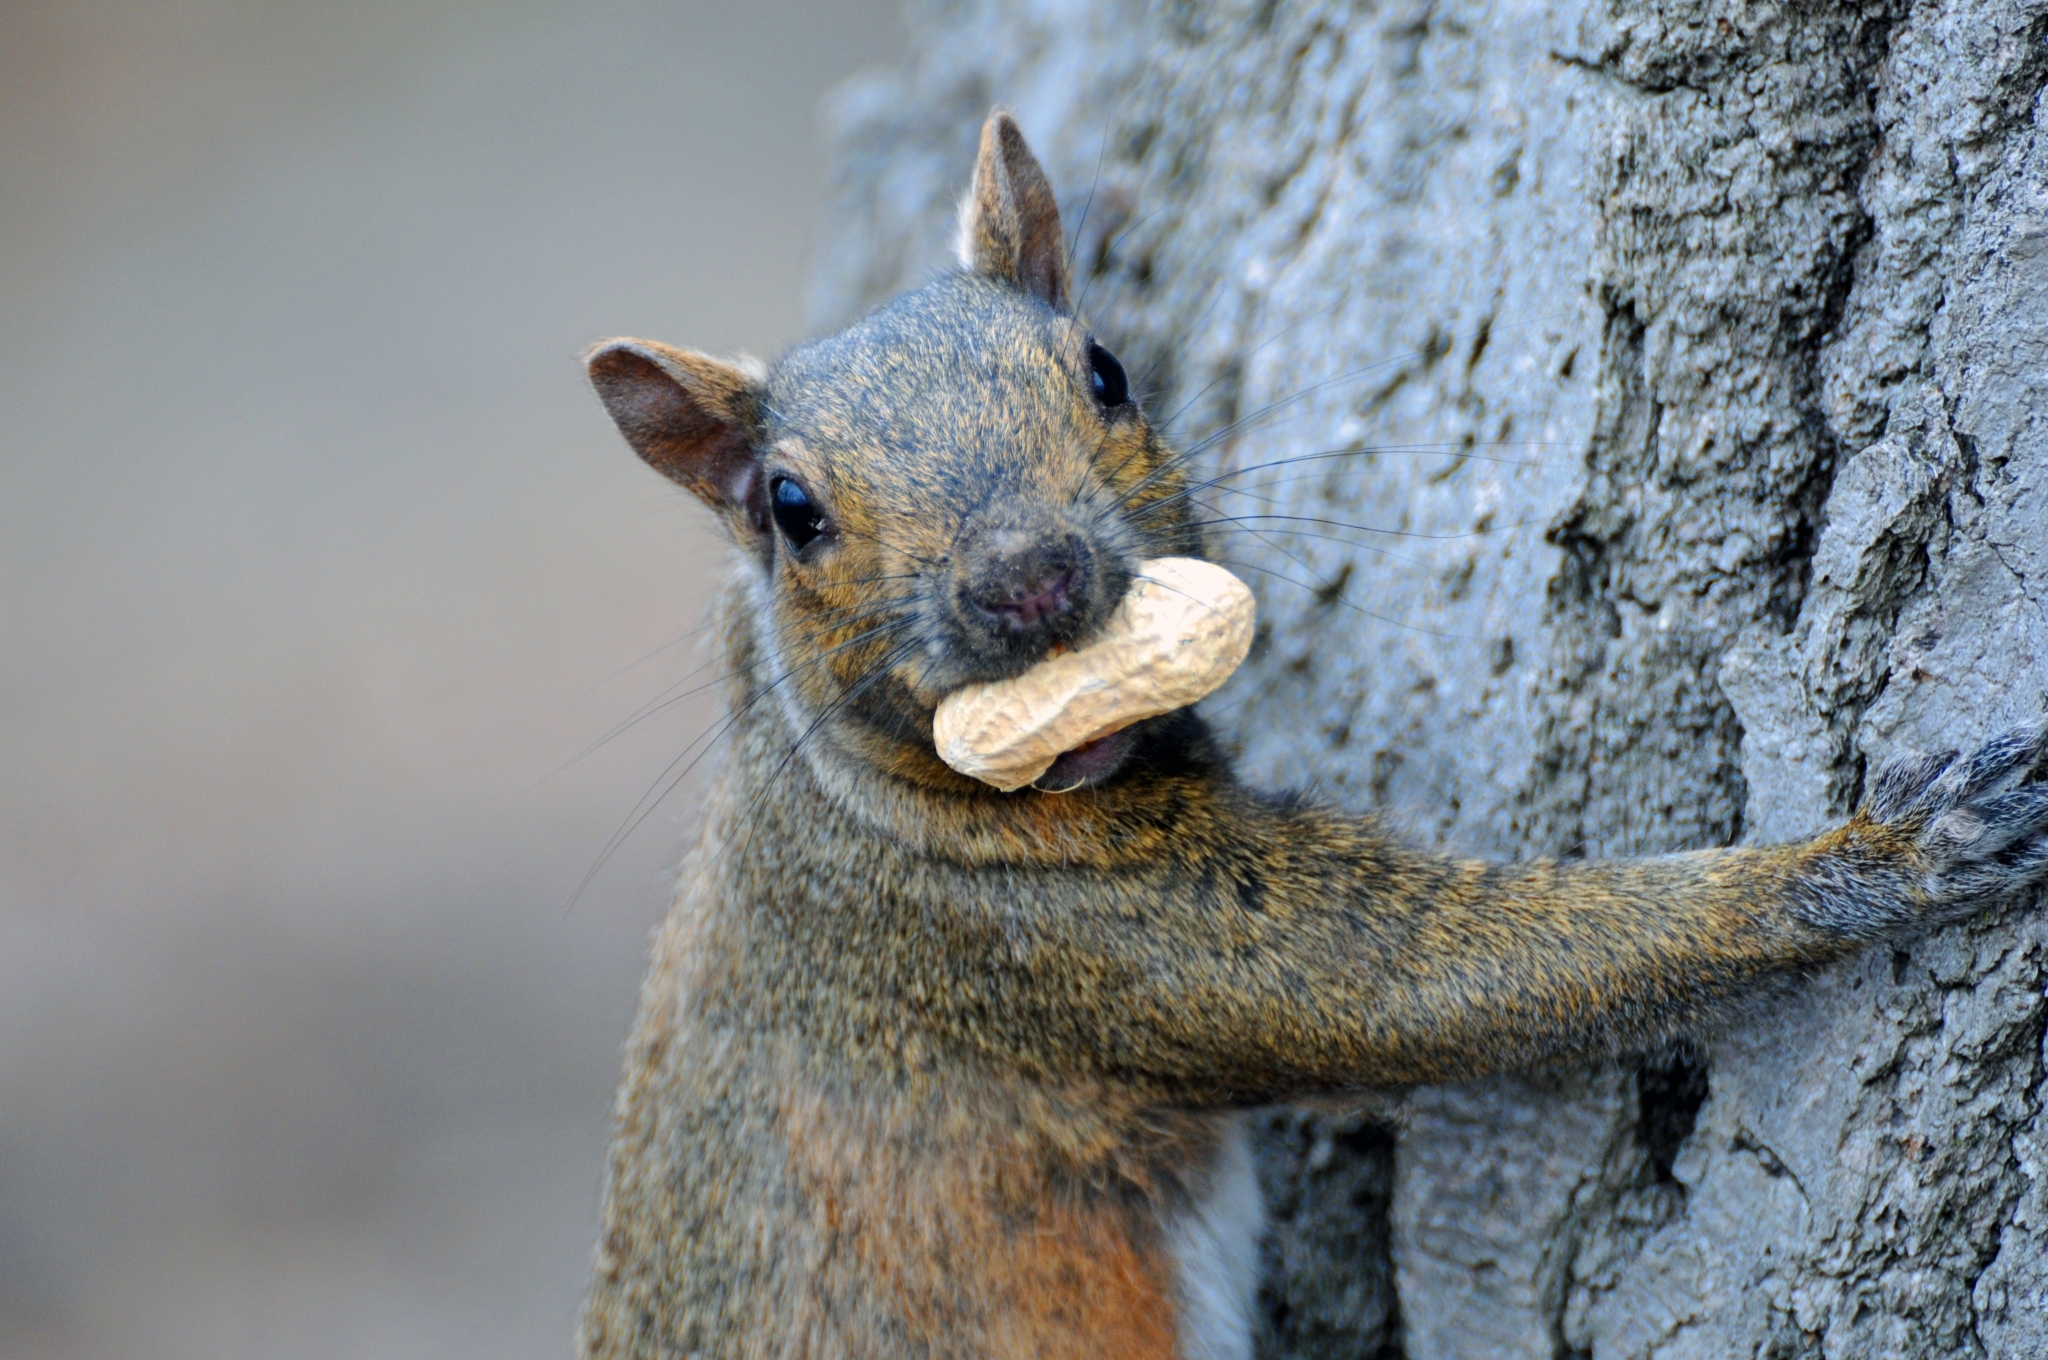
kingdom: Animalia
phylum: Chordata
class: Mammalia
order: Rodentia
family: Sciuridae
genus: Sciurus
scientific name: Sciurus carolinensis
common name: Eastern gray squirrel
